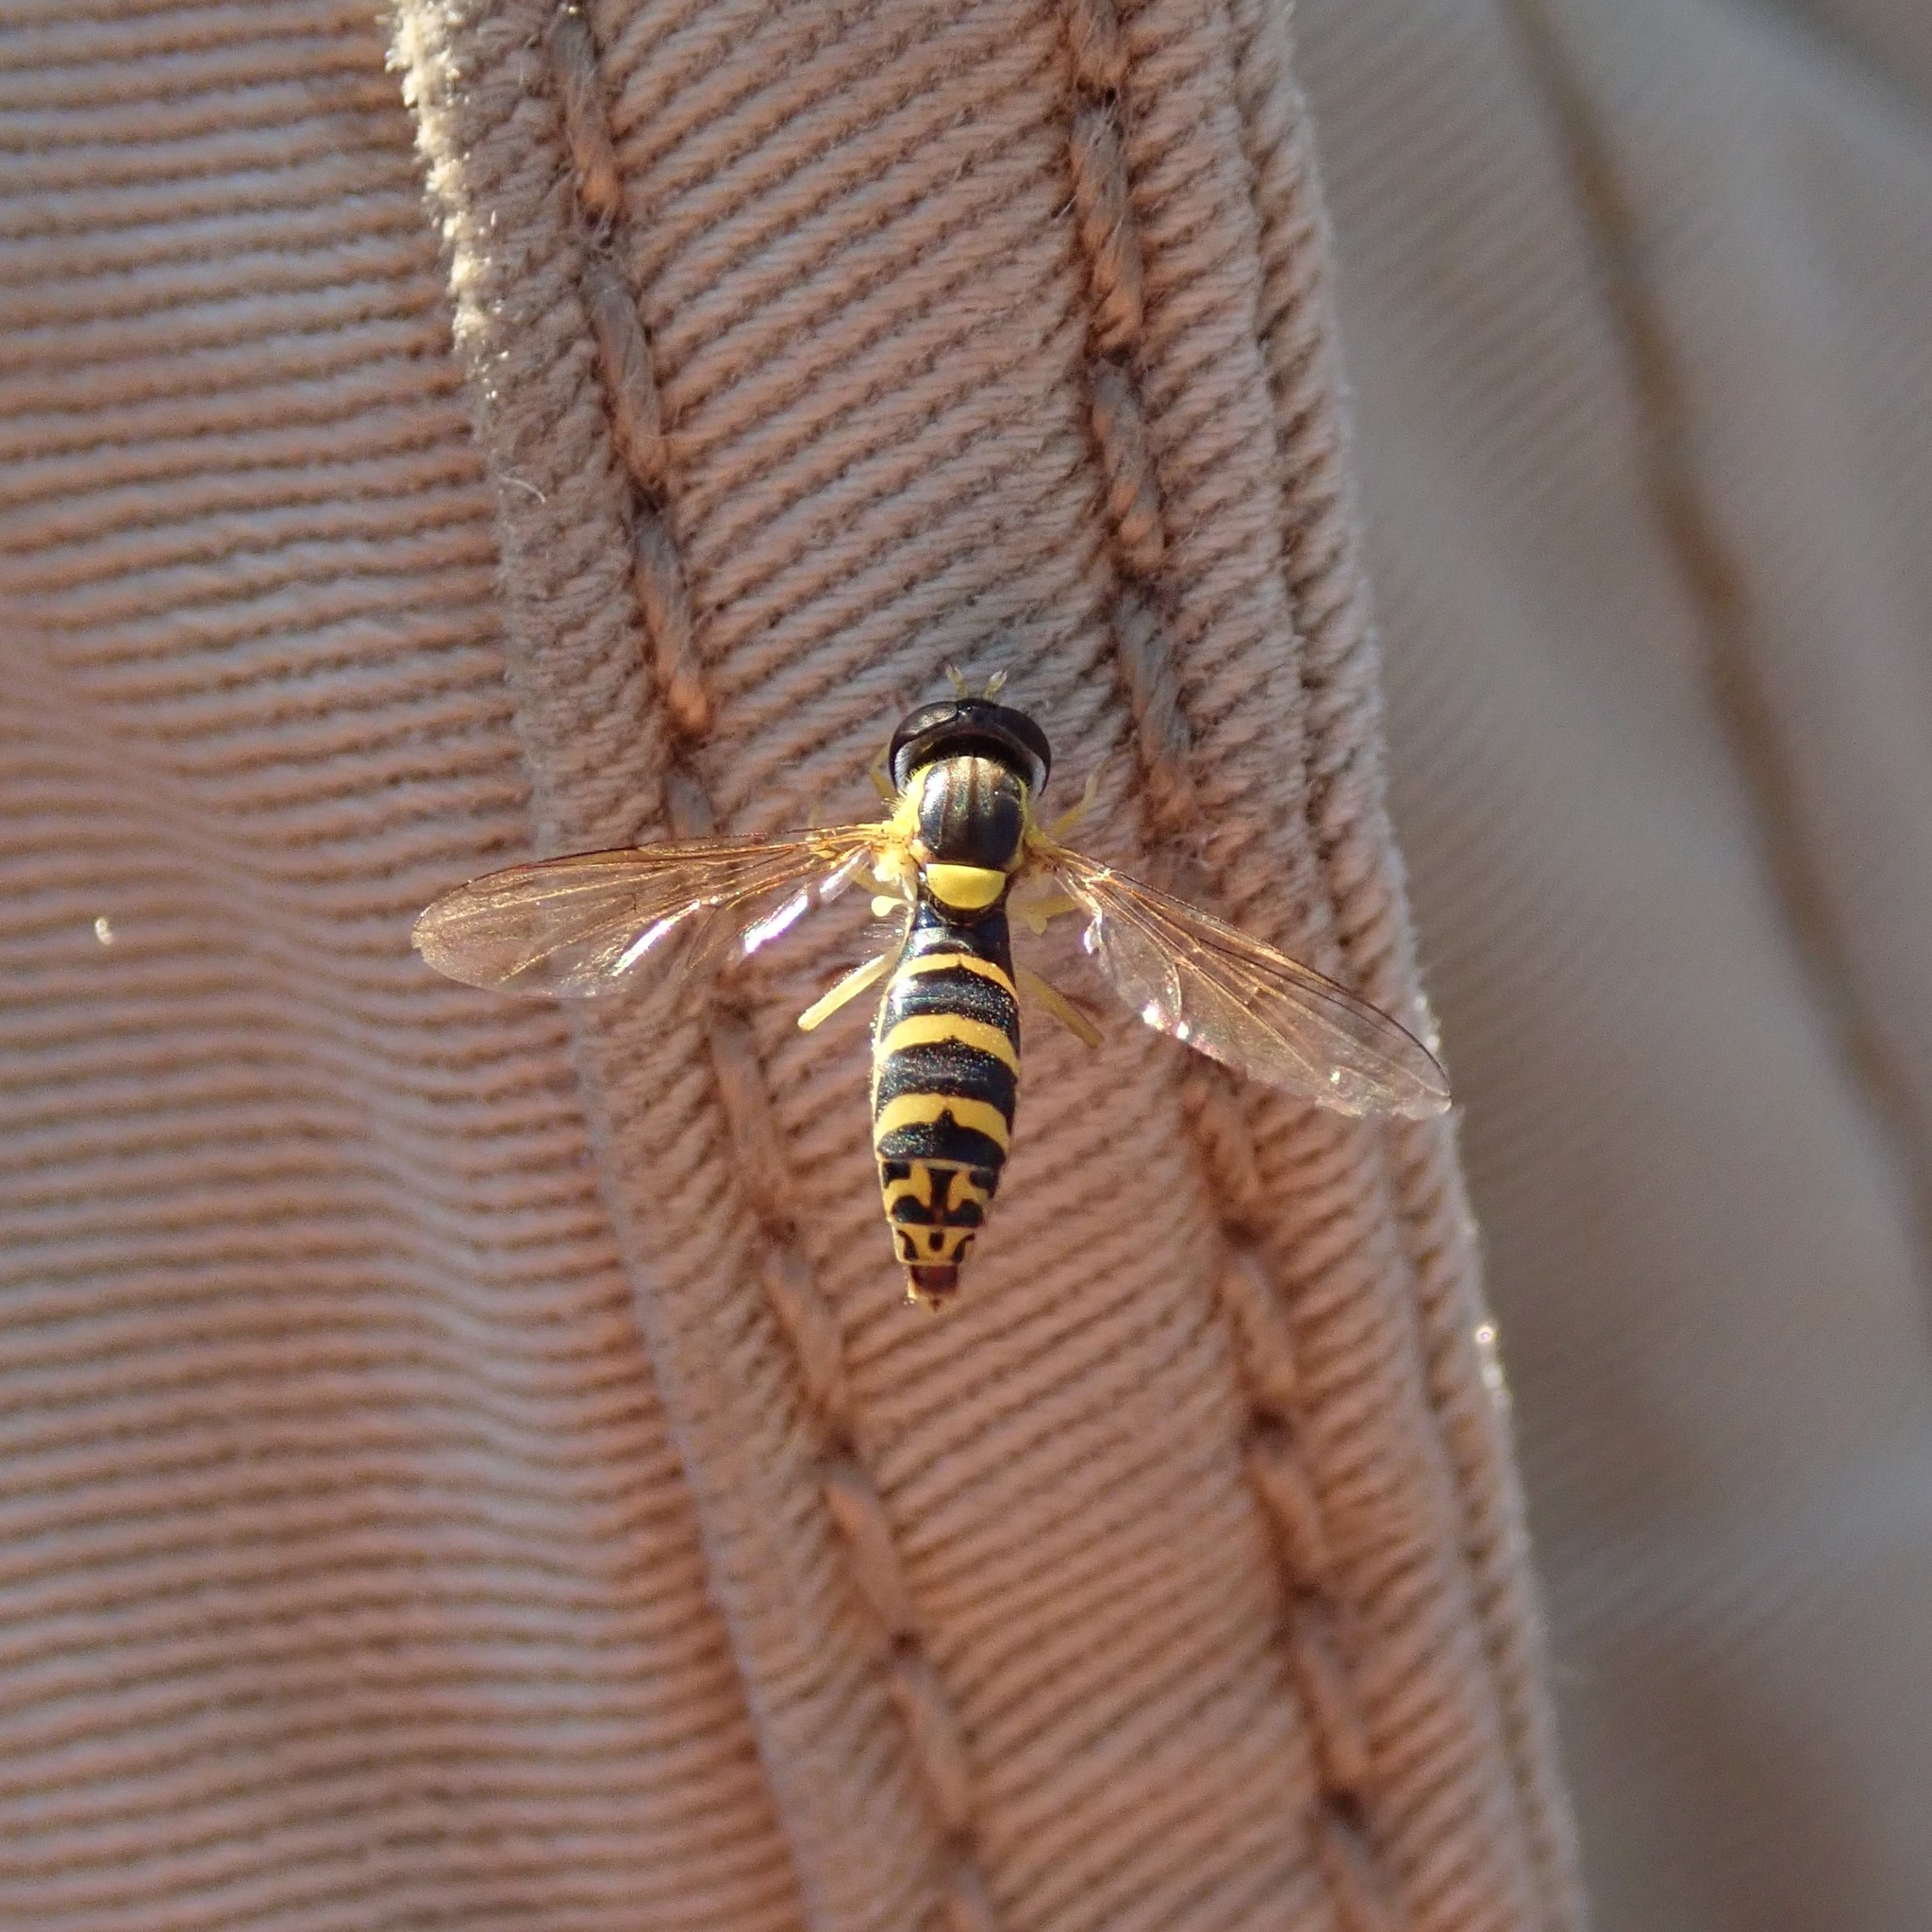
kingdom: Animalia
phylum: Arthropoda
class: Insecta
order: Diptera
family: Syrphidae
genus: Sphaerophoria
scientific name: Sphaerophoria
